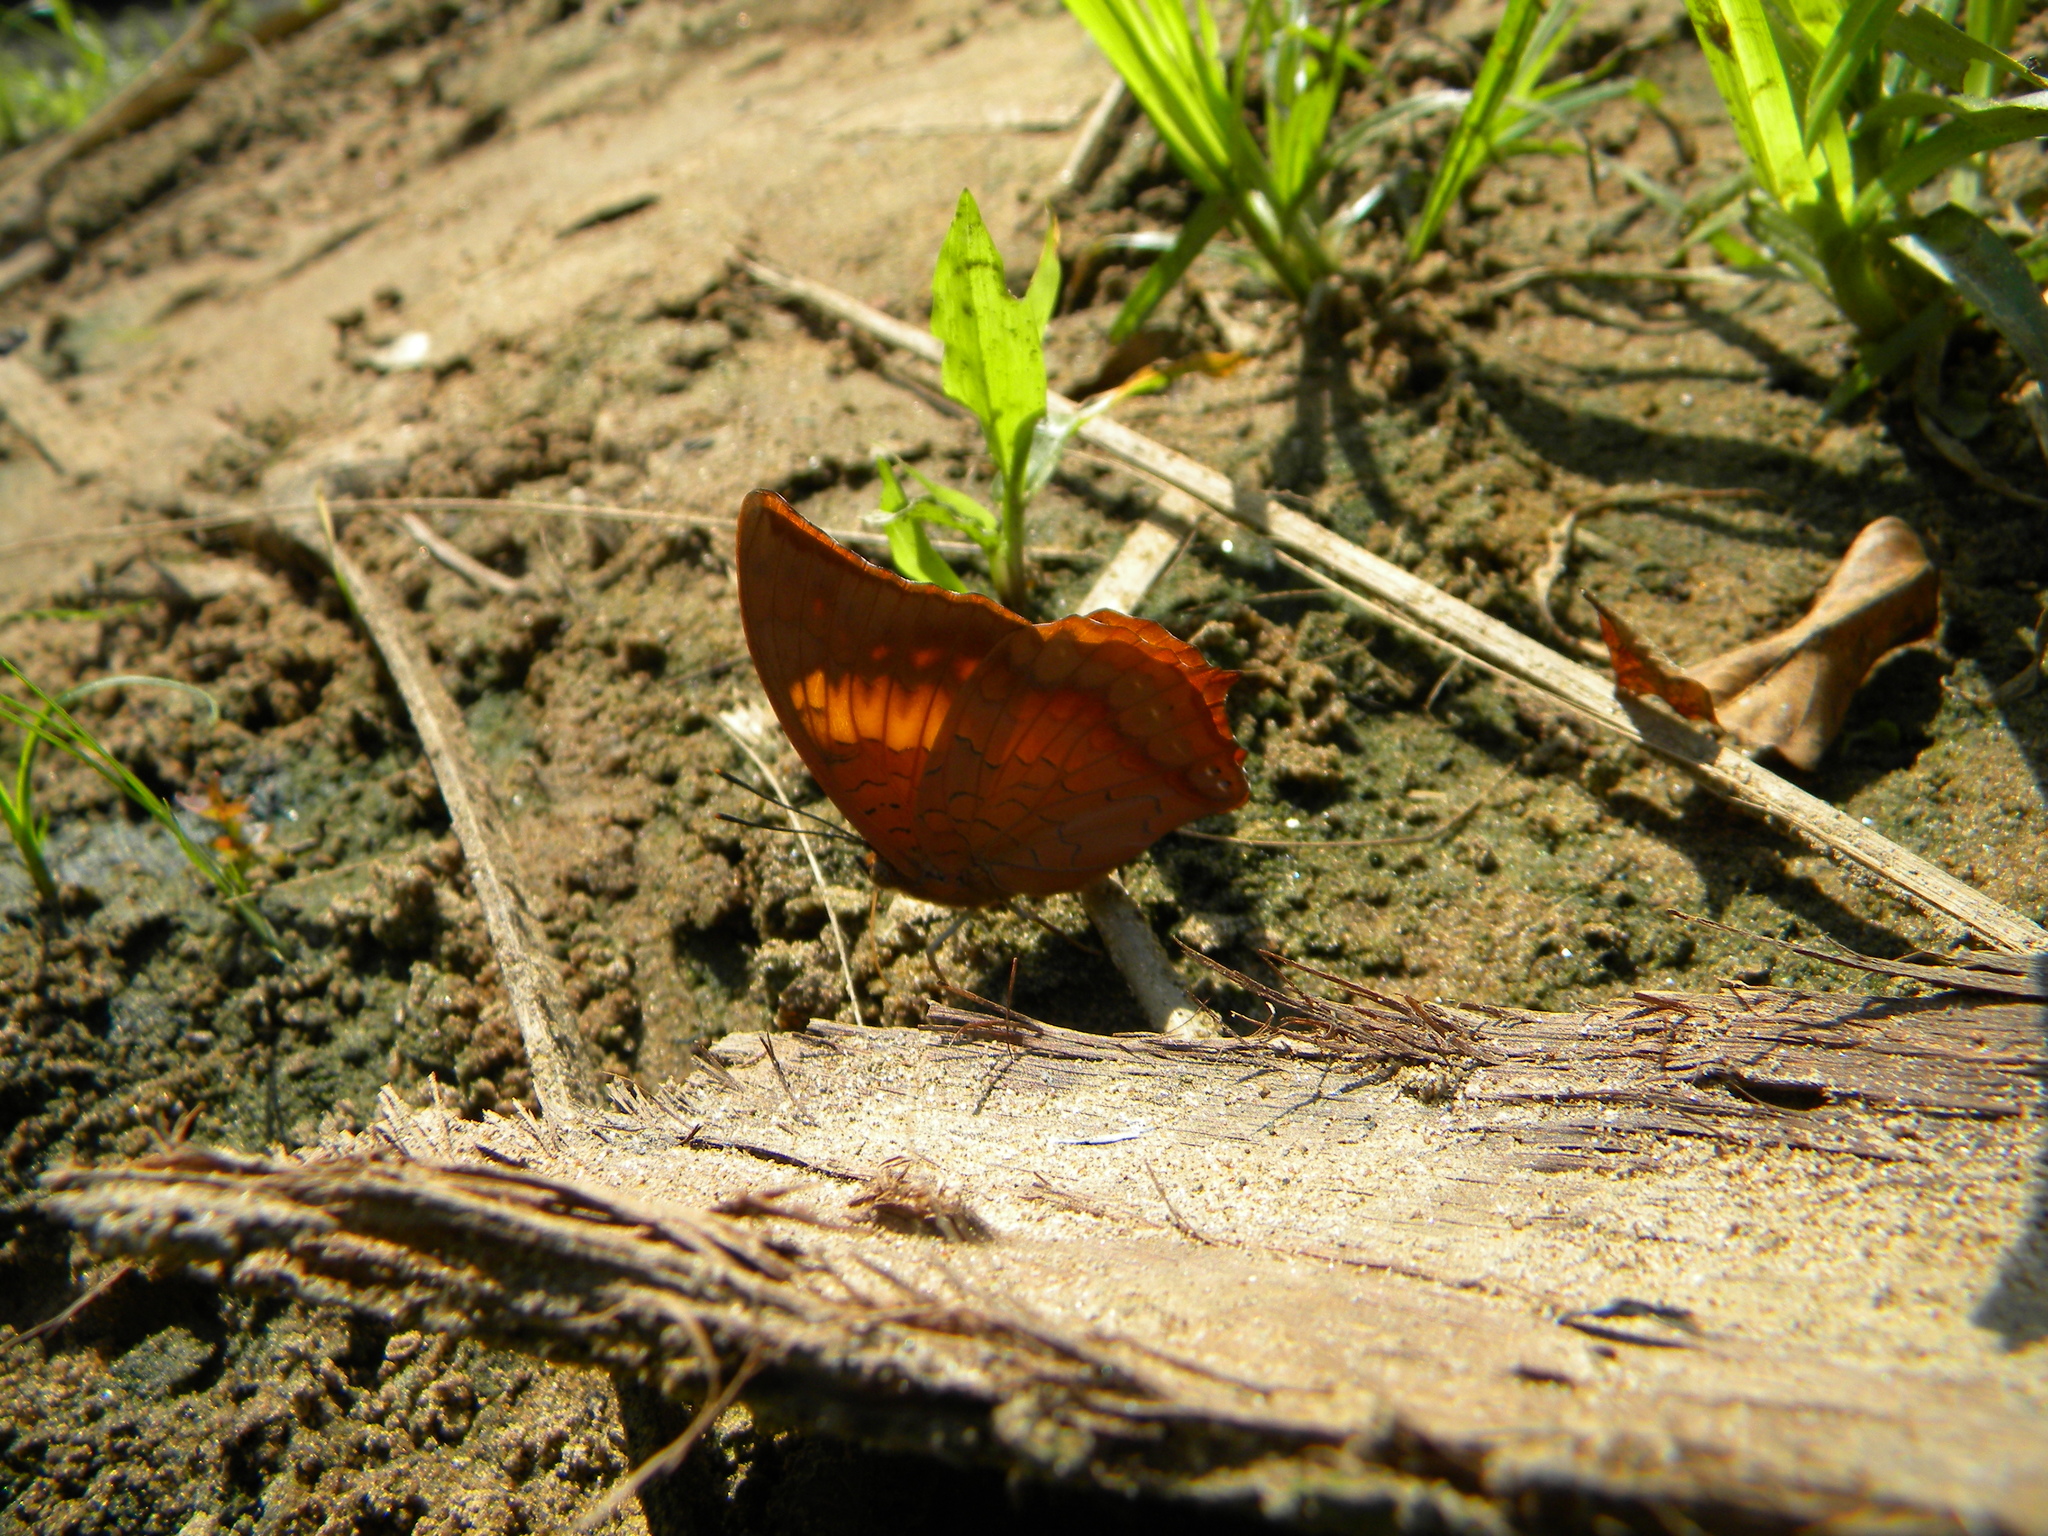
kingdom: Animalia
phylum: Arthropoda
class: Insecta
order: Lepidoptera
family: Nymphalidae
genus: Charaxes
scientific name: Charaxes marmax
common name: Yellow rajah
